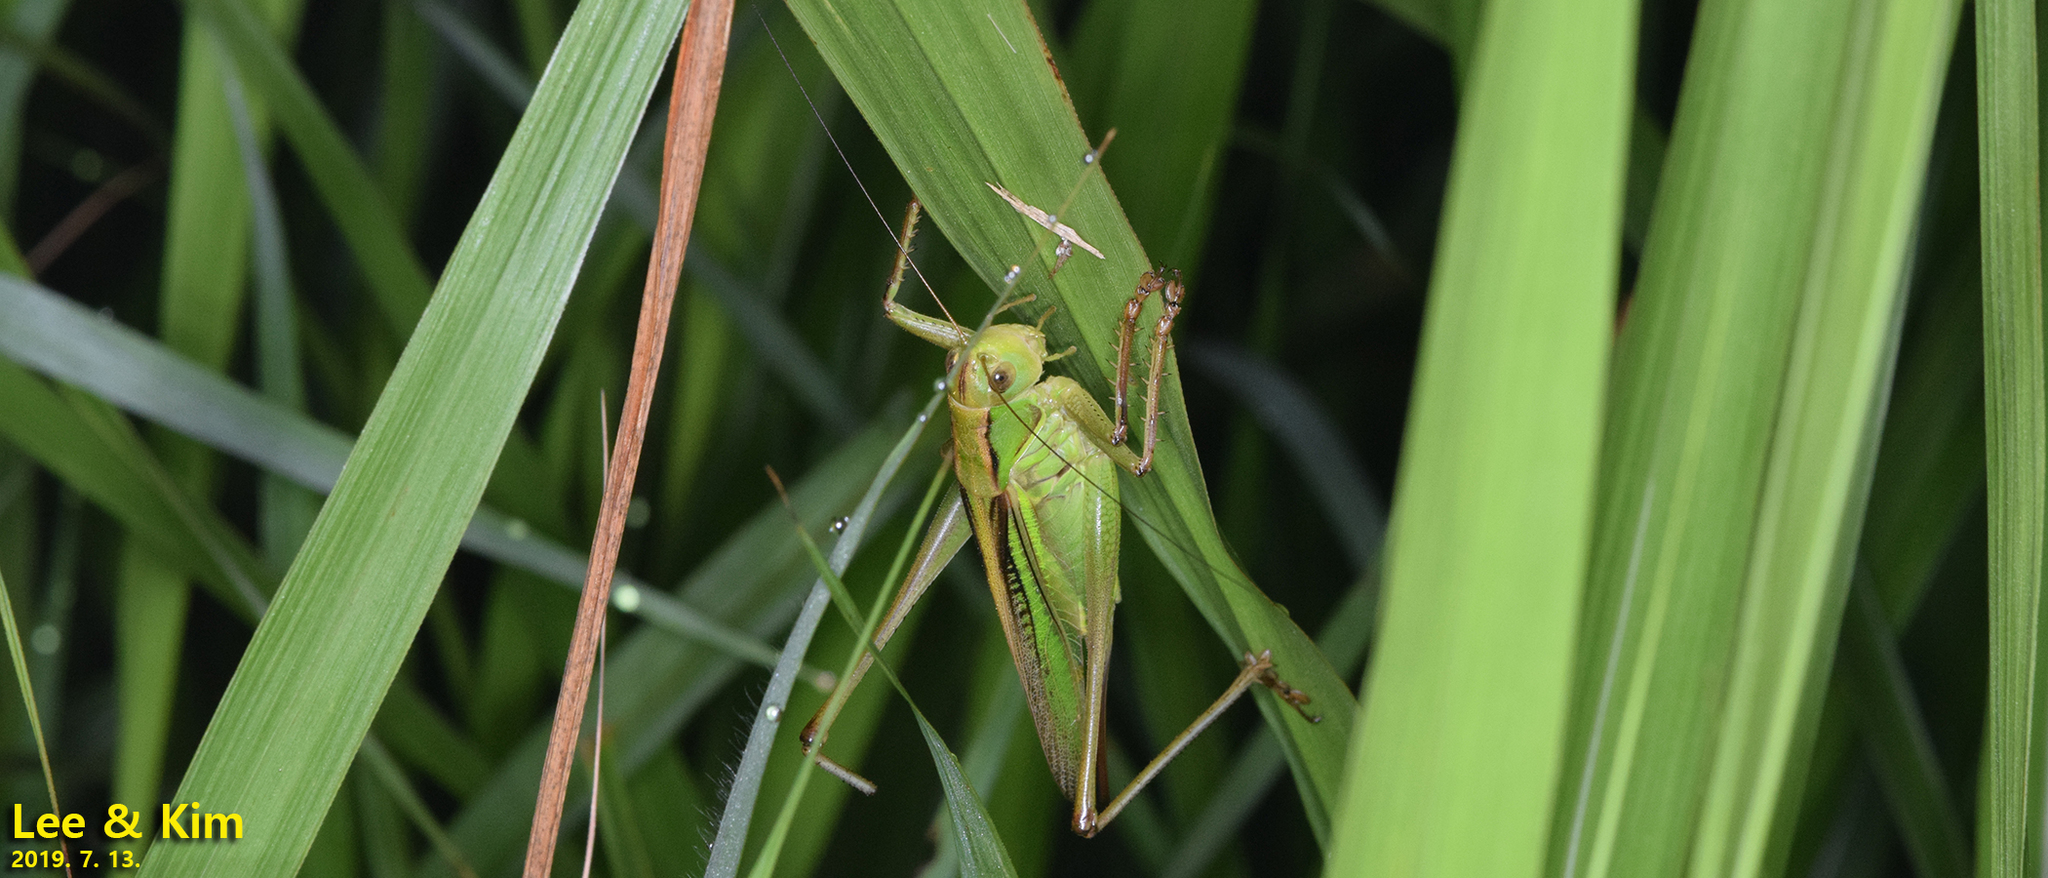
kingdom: Animalia
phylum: Arthropoda
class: Insecta
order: Orthoptera
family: Tettigoniidae
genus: Gampsocleis
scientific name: Gampsocleis ussuriensis
